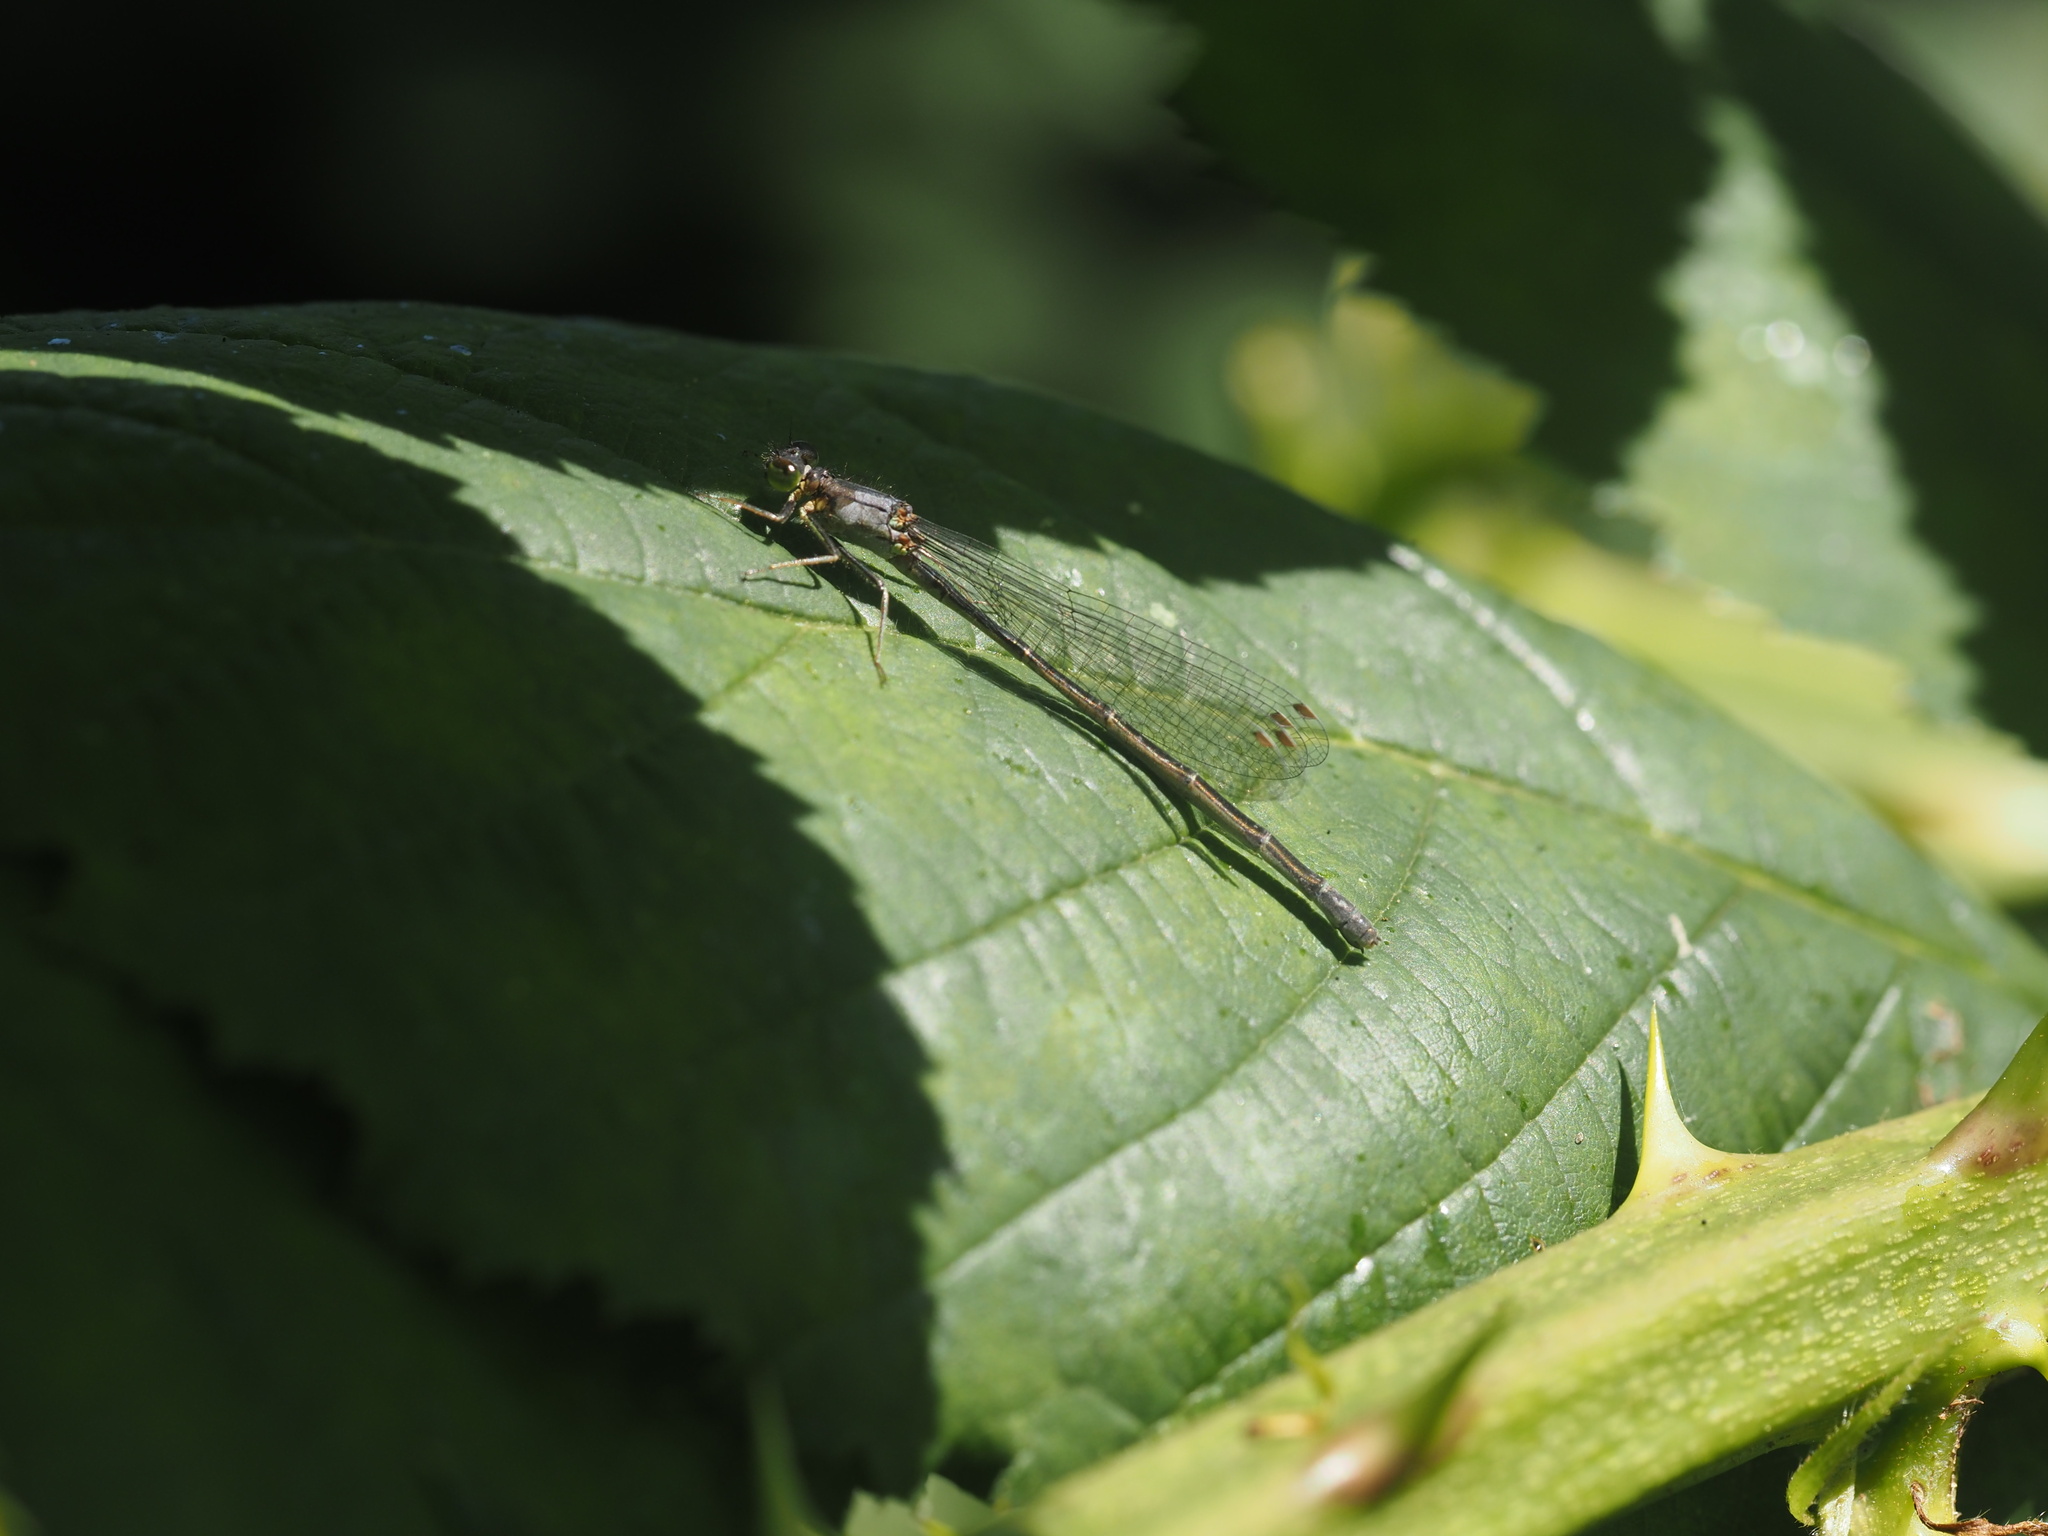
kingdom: Animalia
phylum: Arthropoda
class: Insecta
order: Odonata
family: Coenagrionidae
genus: Ischnura
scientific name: Ischnura cervula
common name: Pacific forktail
